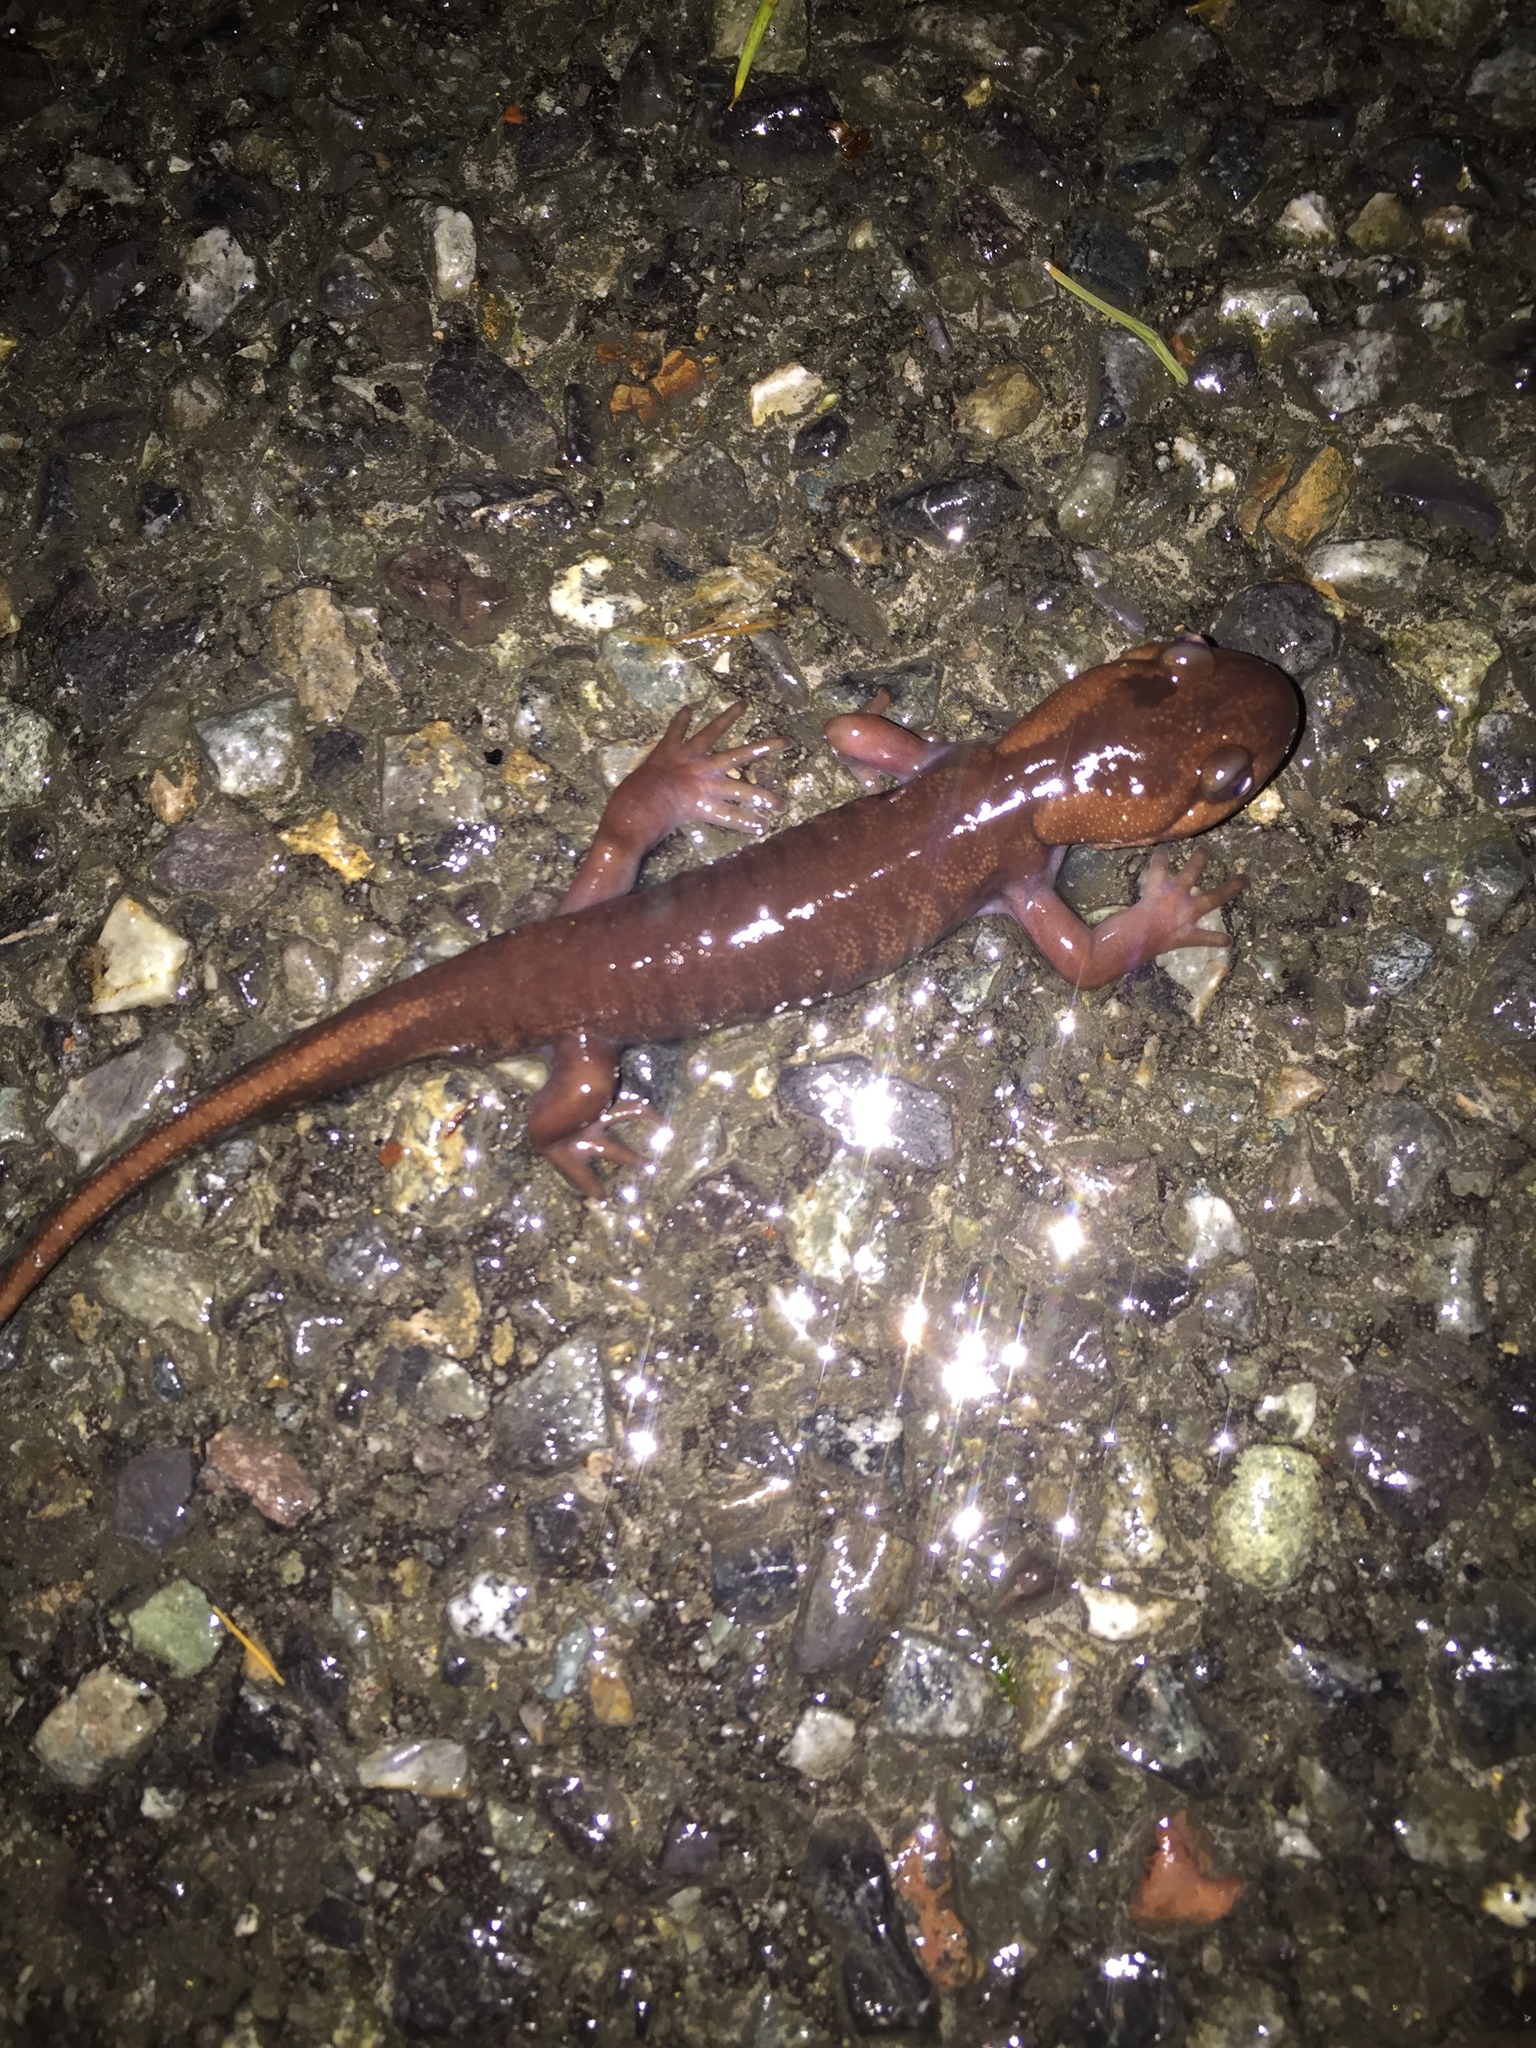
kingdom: Animalia
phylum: Chordata
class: Amphibia
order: Caudata
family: Ambystomatidae
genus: Ambystoma
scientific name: Ambystoma gracile
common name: Northwestern salamander
